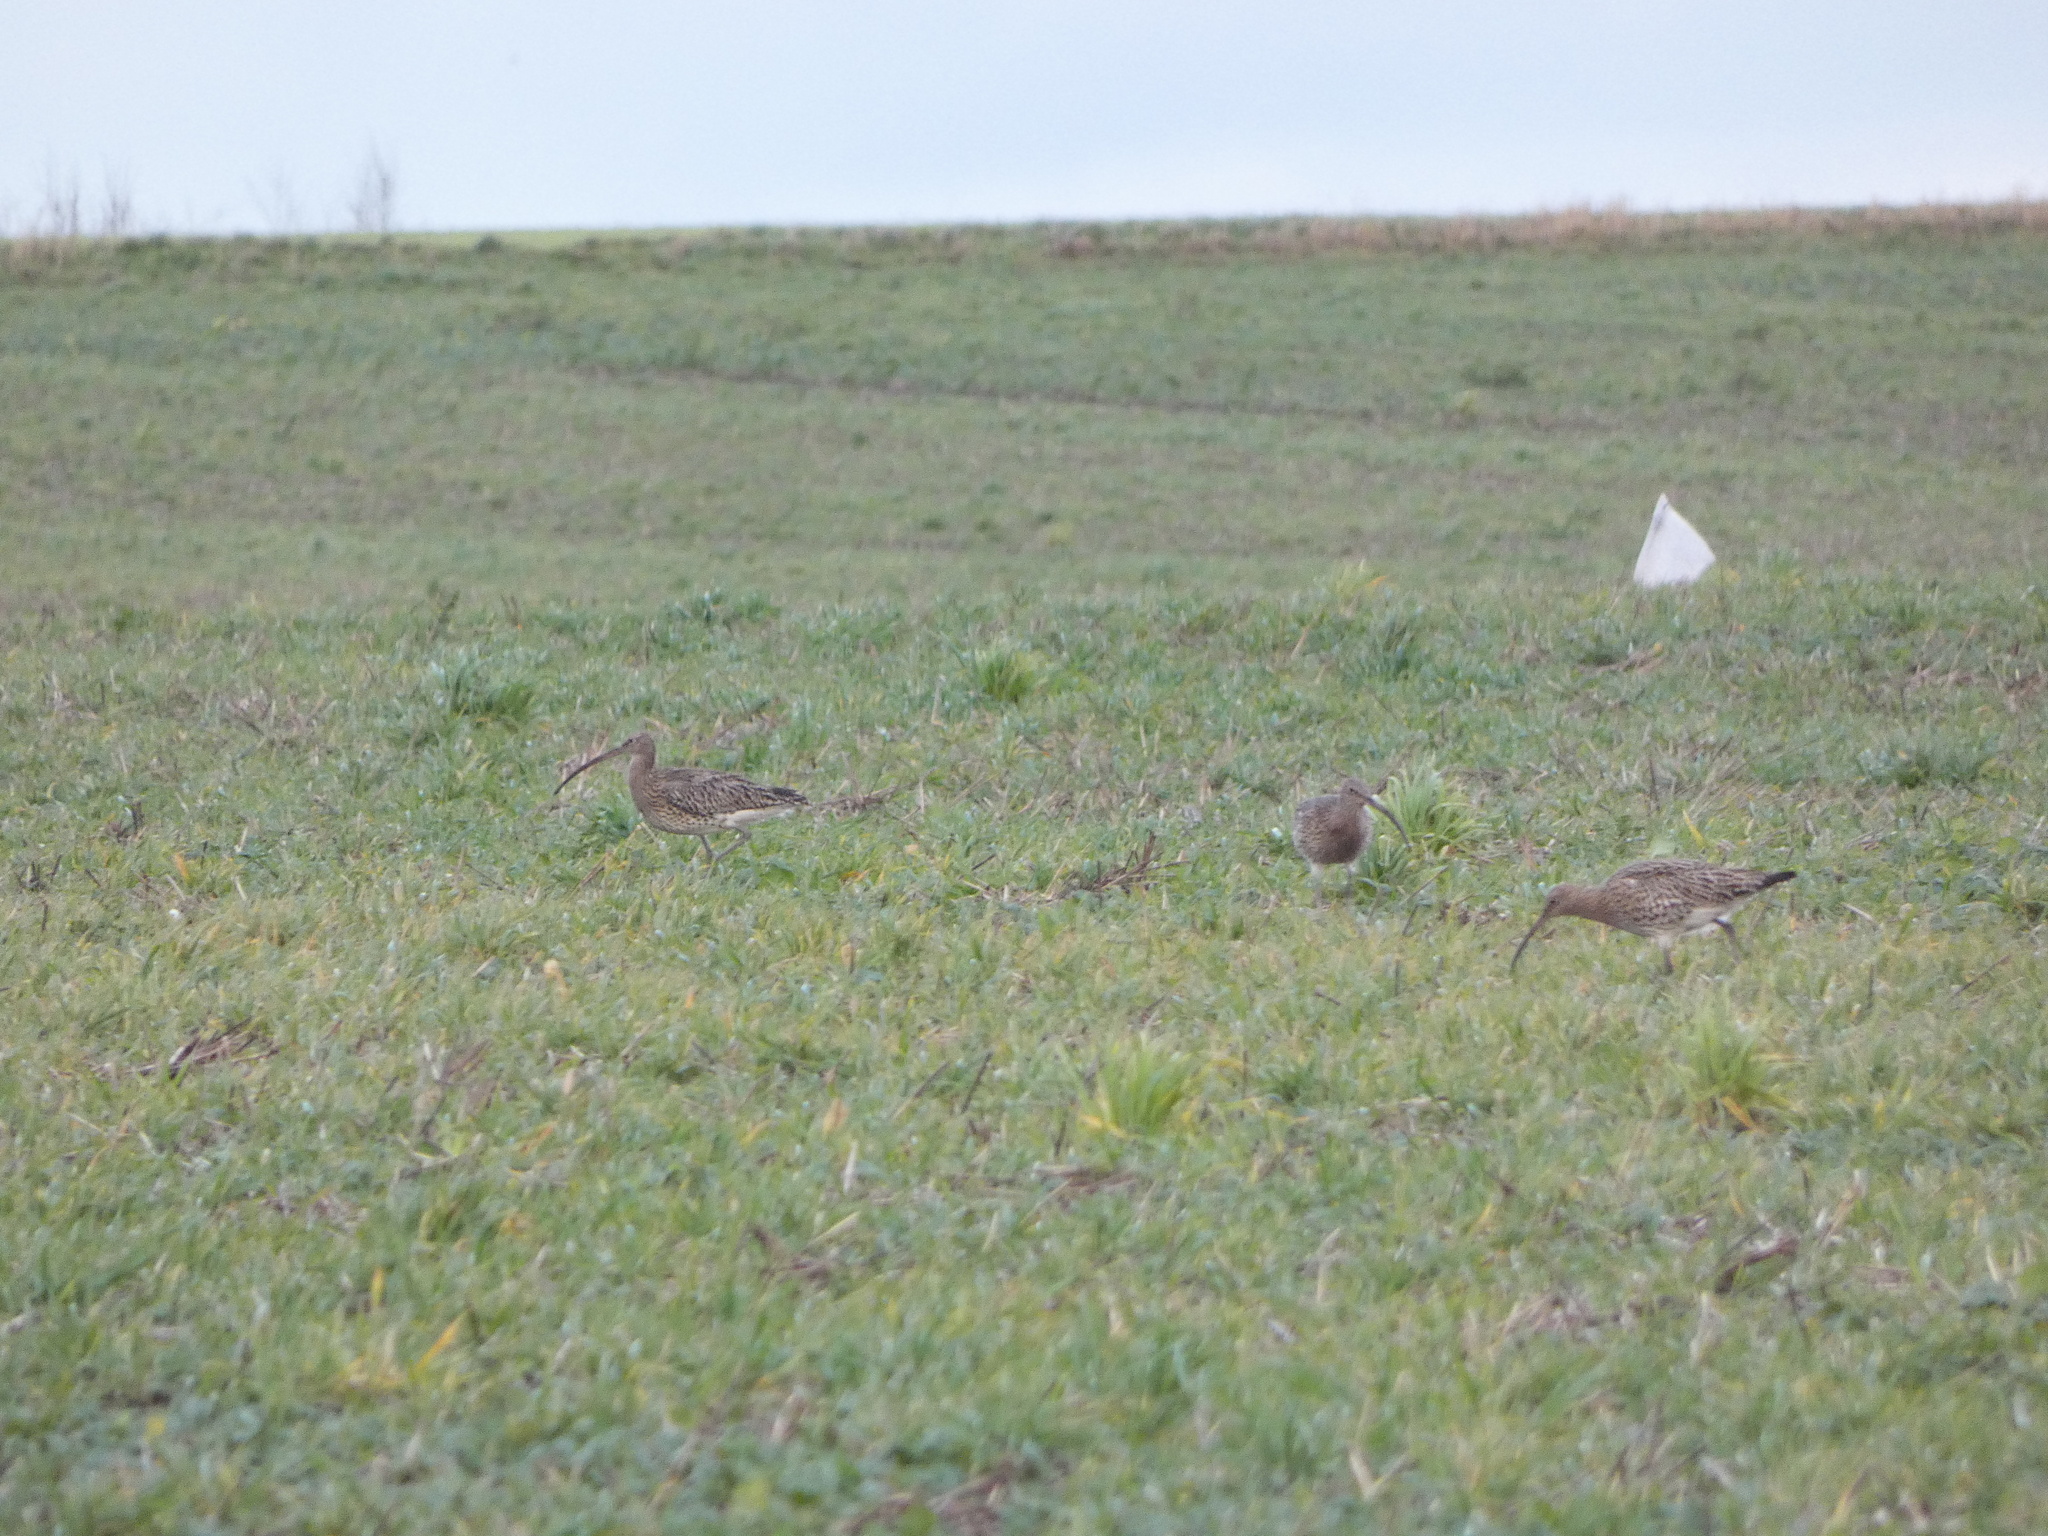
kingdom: Animalia
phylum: Chordata
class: Aves
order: Charadriiformes
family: Scolopacidae
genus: Numenius
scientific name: Numenius arquata
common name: Eurasian curlew
